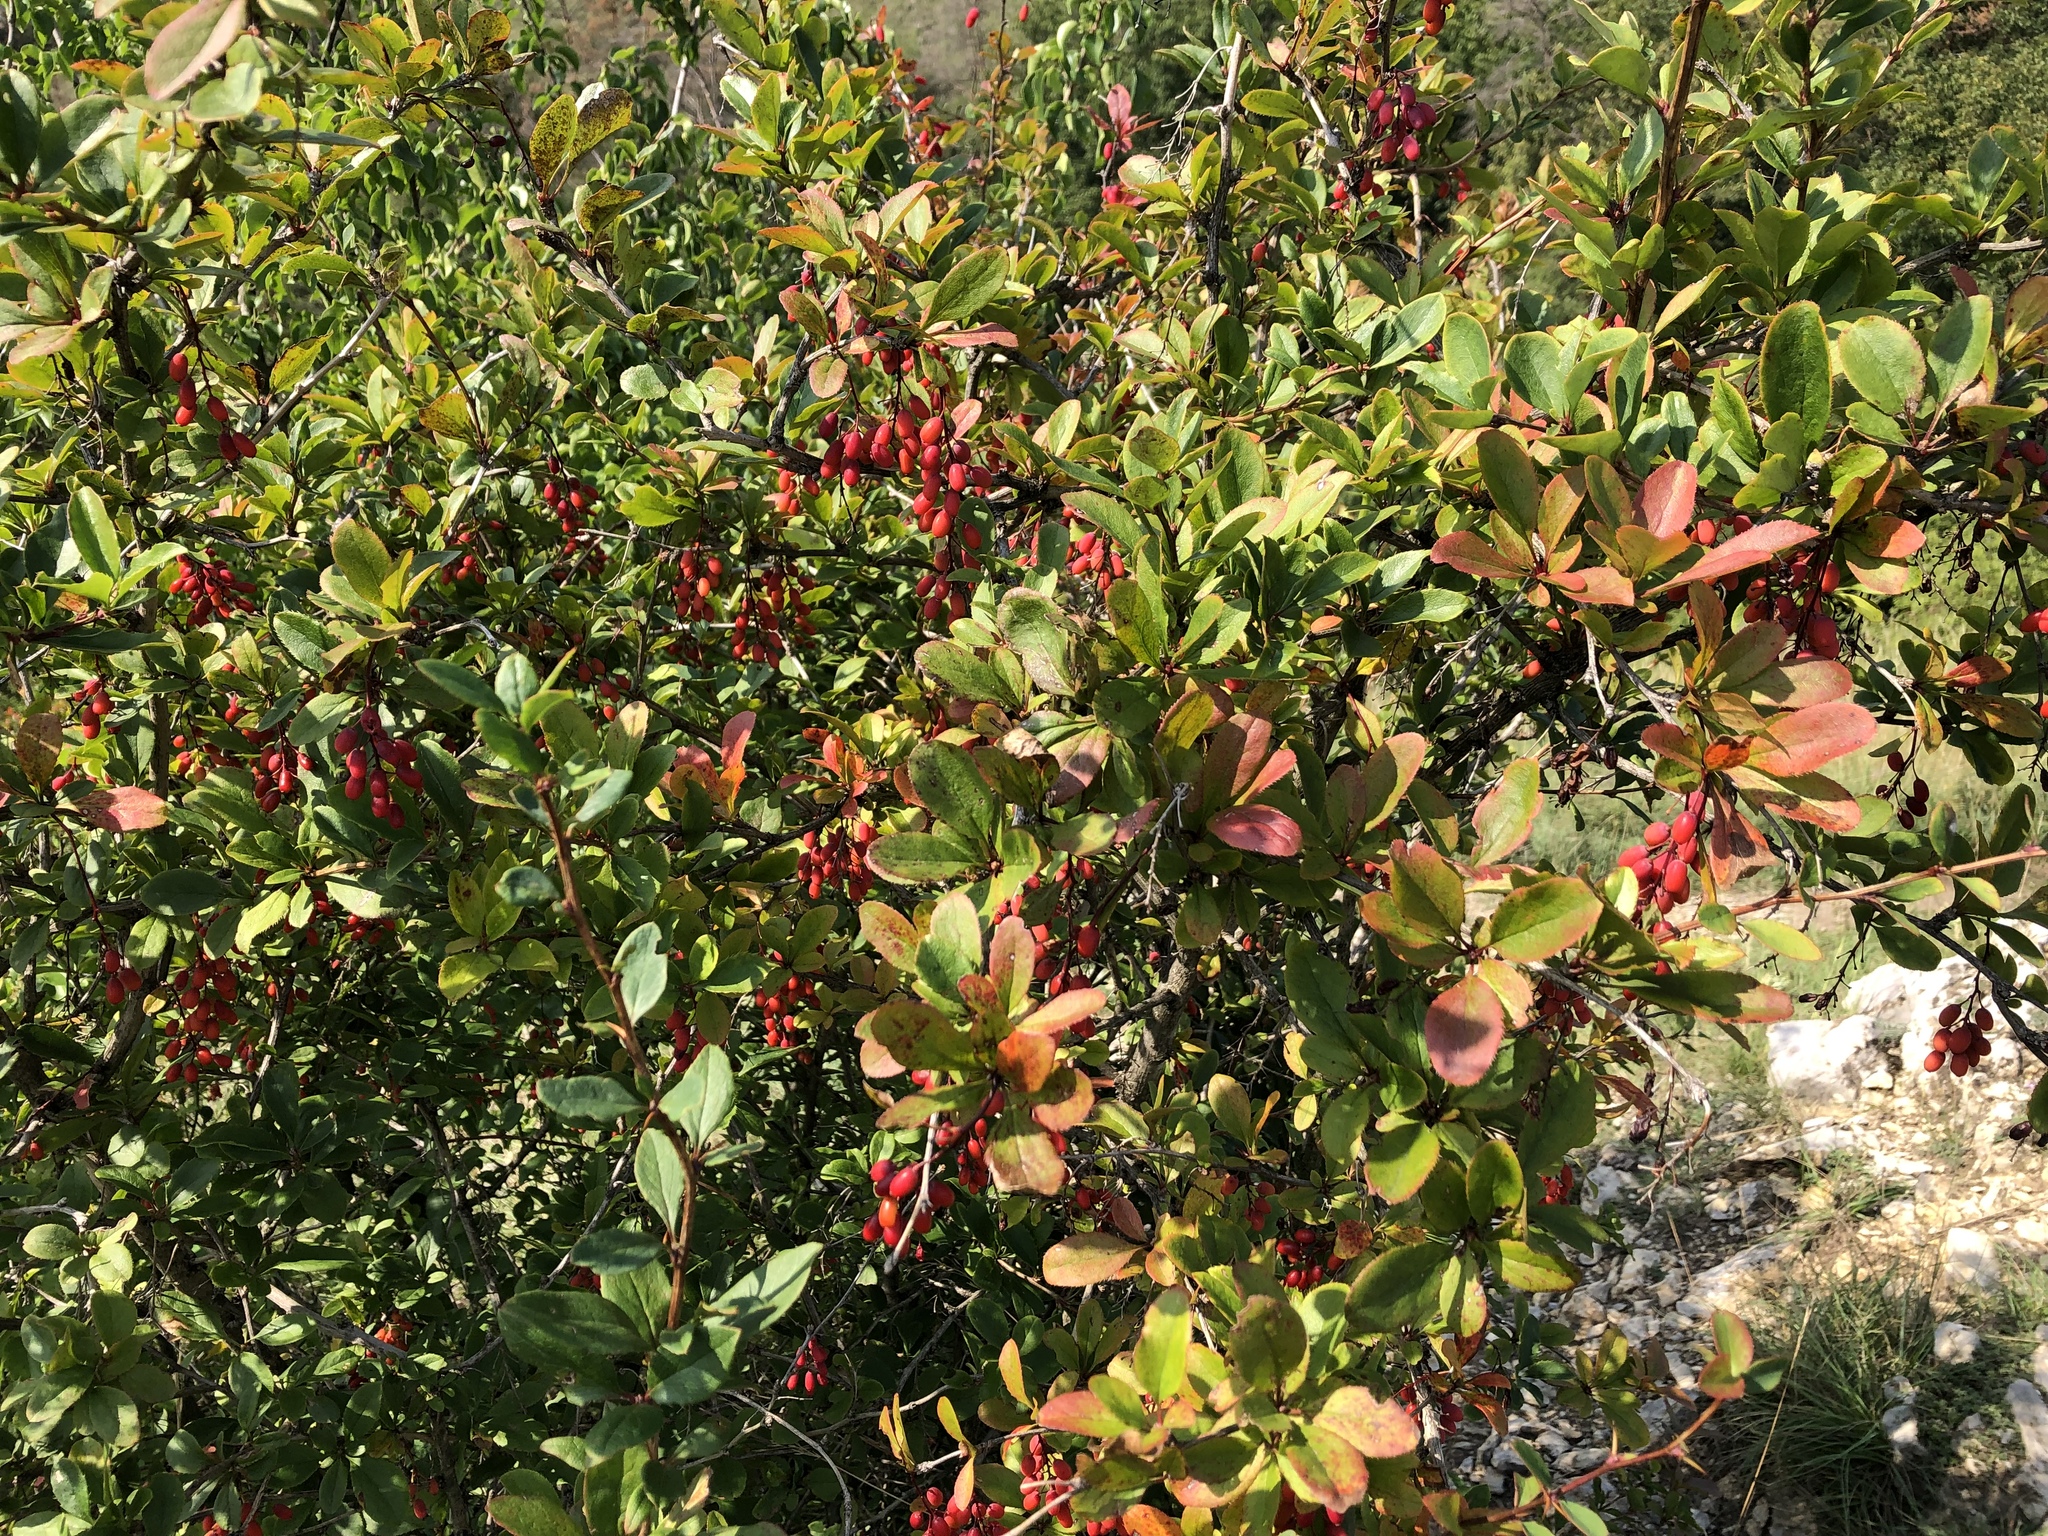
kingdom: Plantae
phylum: Tracheophyta
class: Magnoliopsida
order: Ranunculales
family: Berberidaceae
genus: Berberis
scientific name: Berberis vulgaris
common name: Barberry
